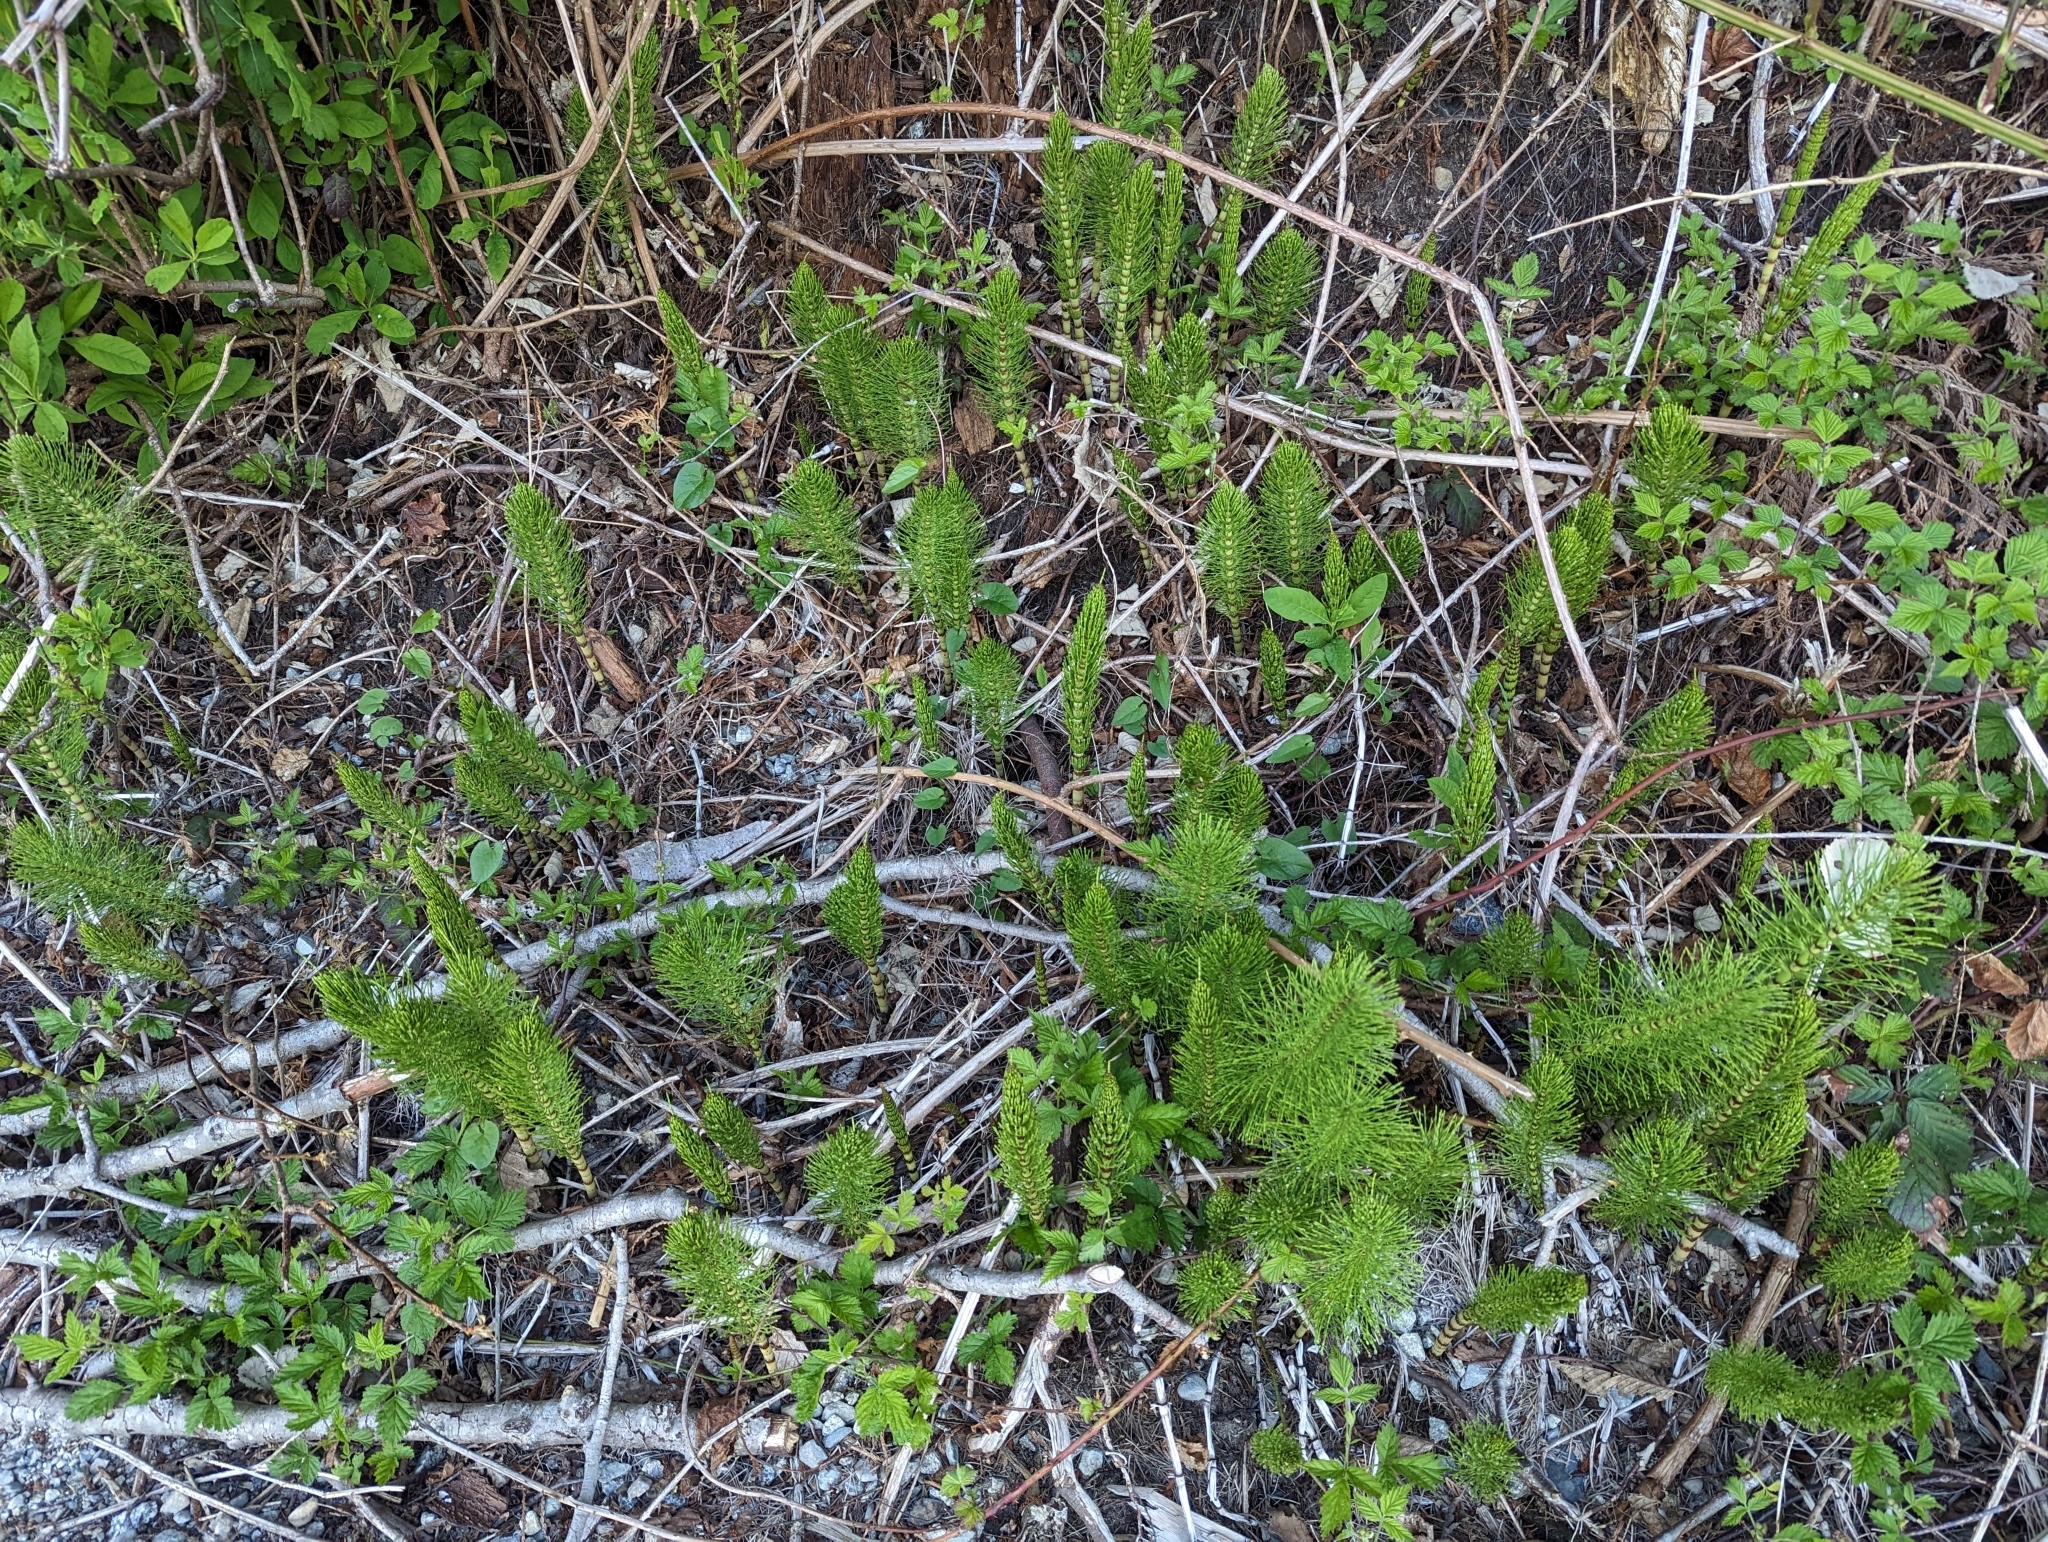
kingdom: Plantae
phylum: Tracheophyta
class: Polypodiopsida
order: Equisetales
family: Equisetaceae
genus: Equisetum
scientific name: Equisetum braunii
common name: Braun's horsetail
